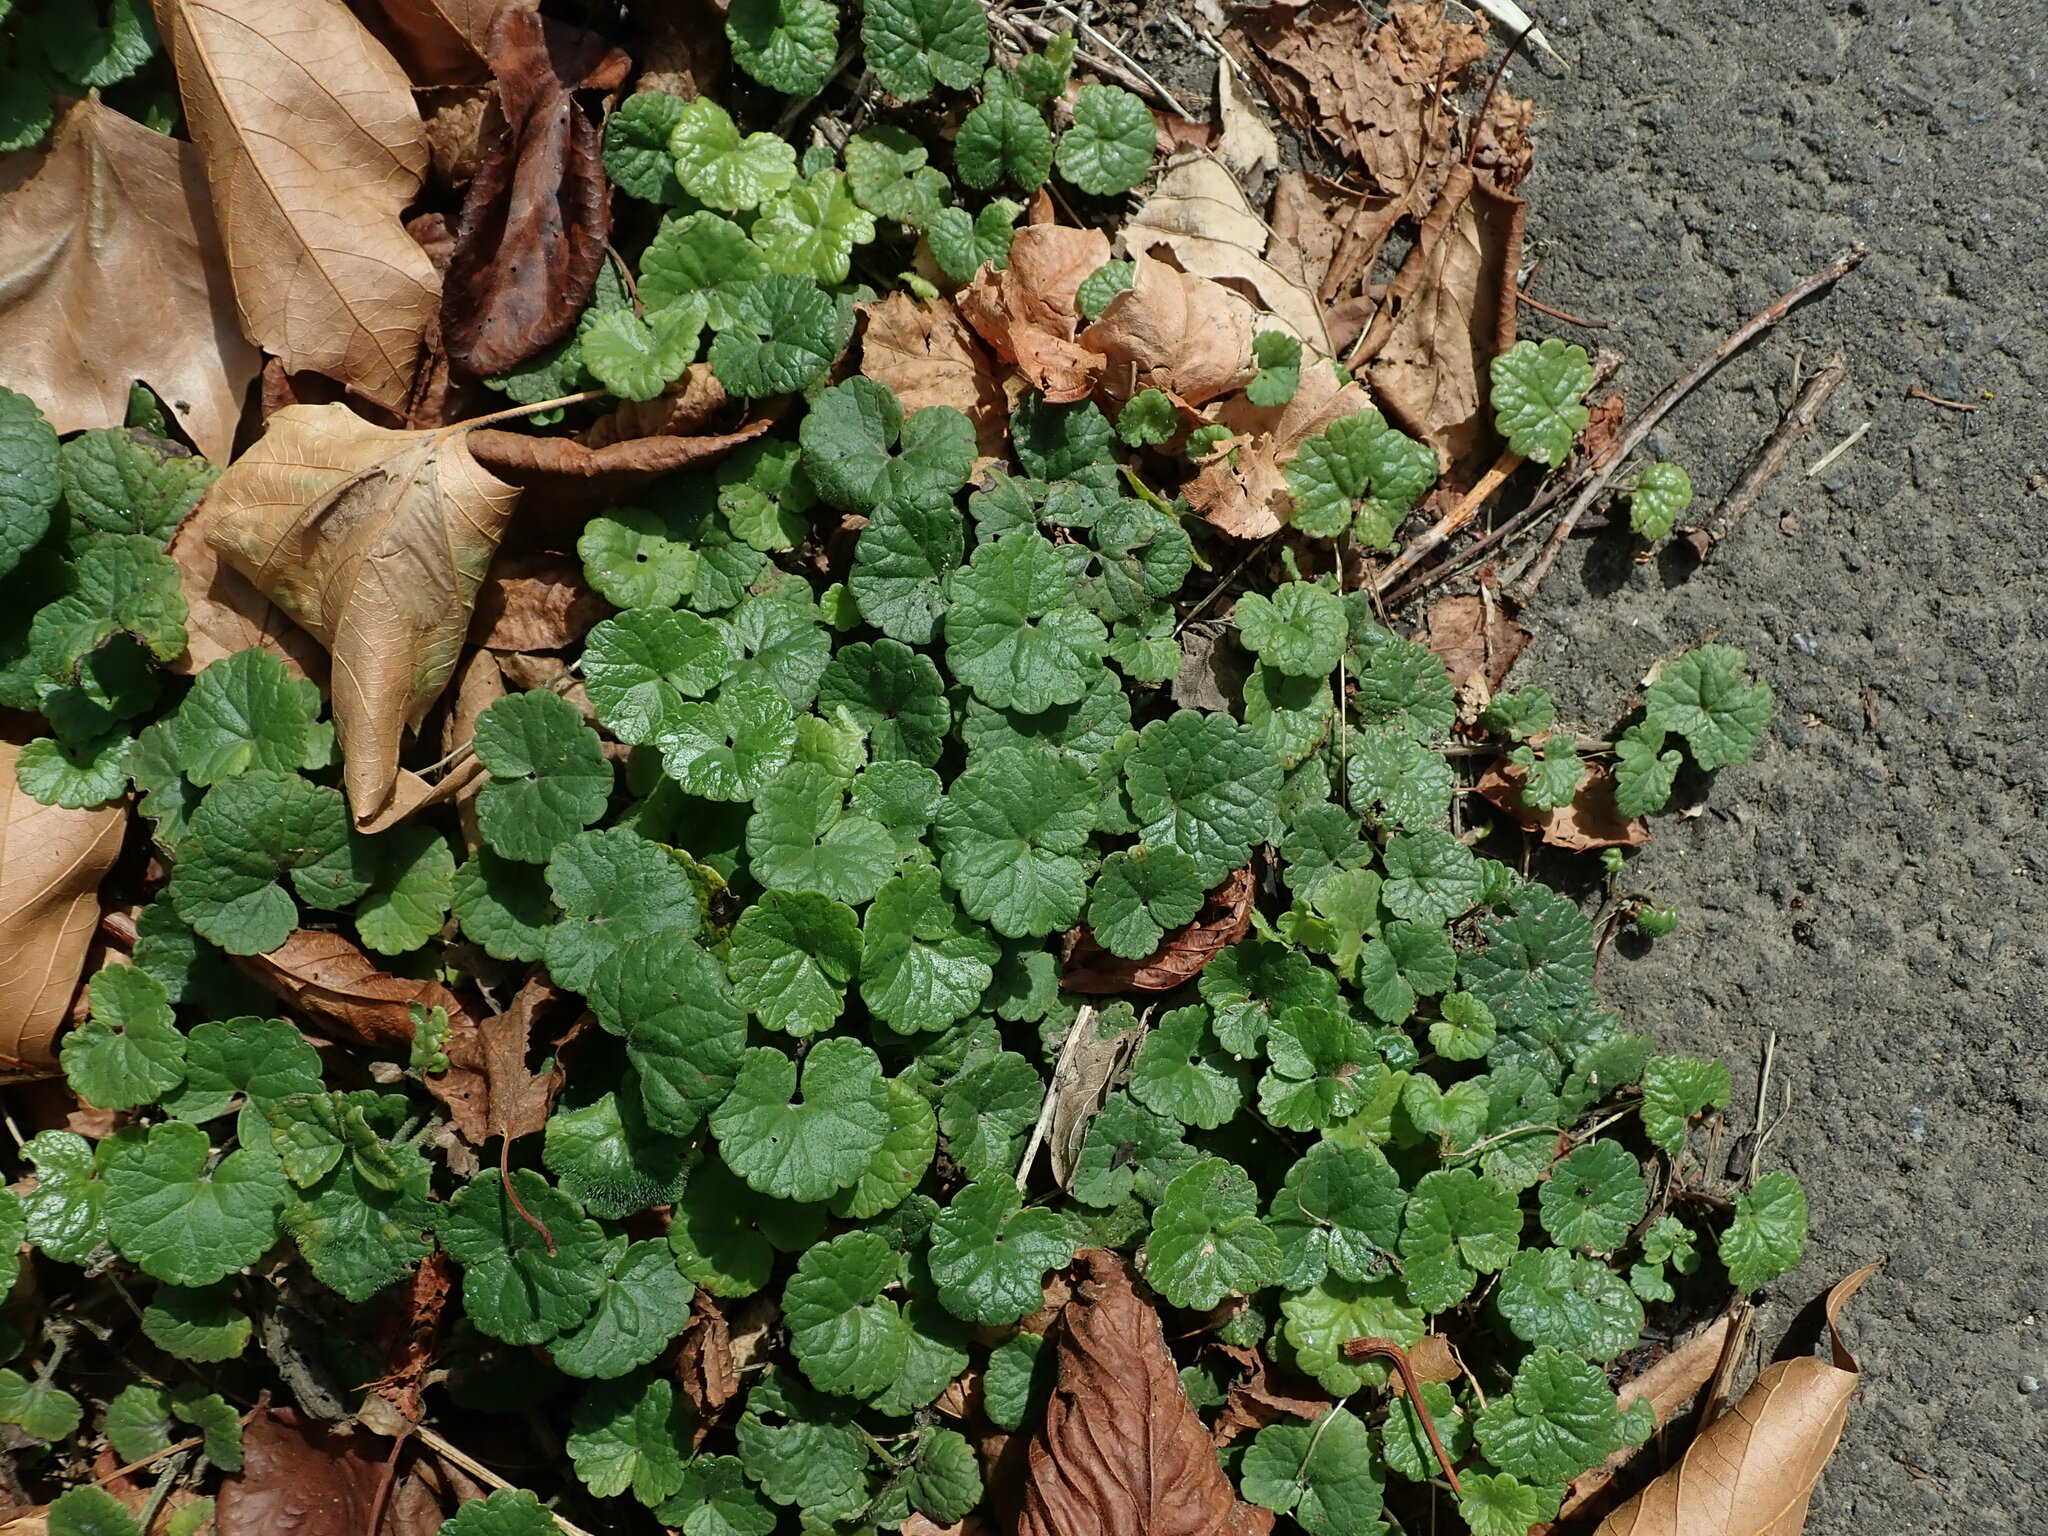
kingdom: Plantae
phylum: Tracheophyta
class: Magnoliopsida
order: Lamiales
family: Lamiaceae
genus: Glechoma
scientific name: Glechoma hederacea
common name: Ground ivy
